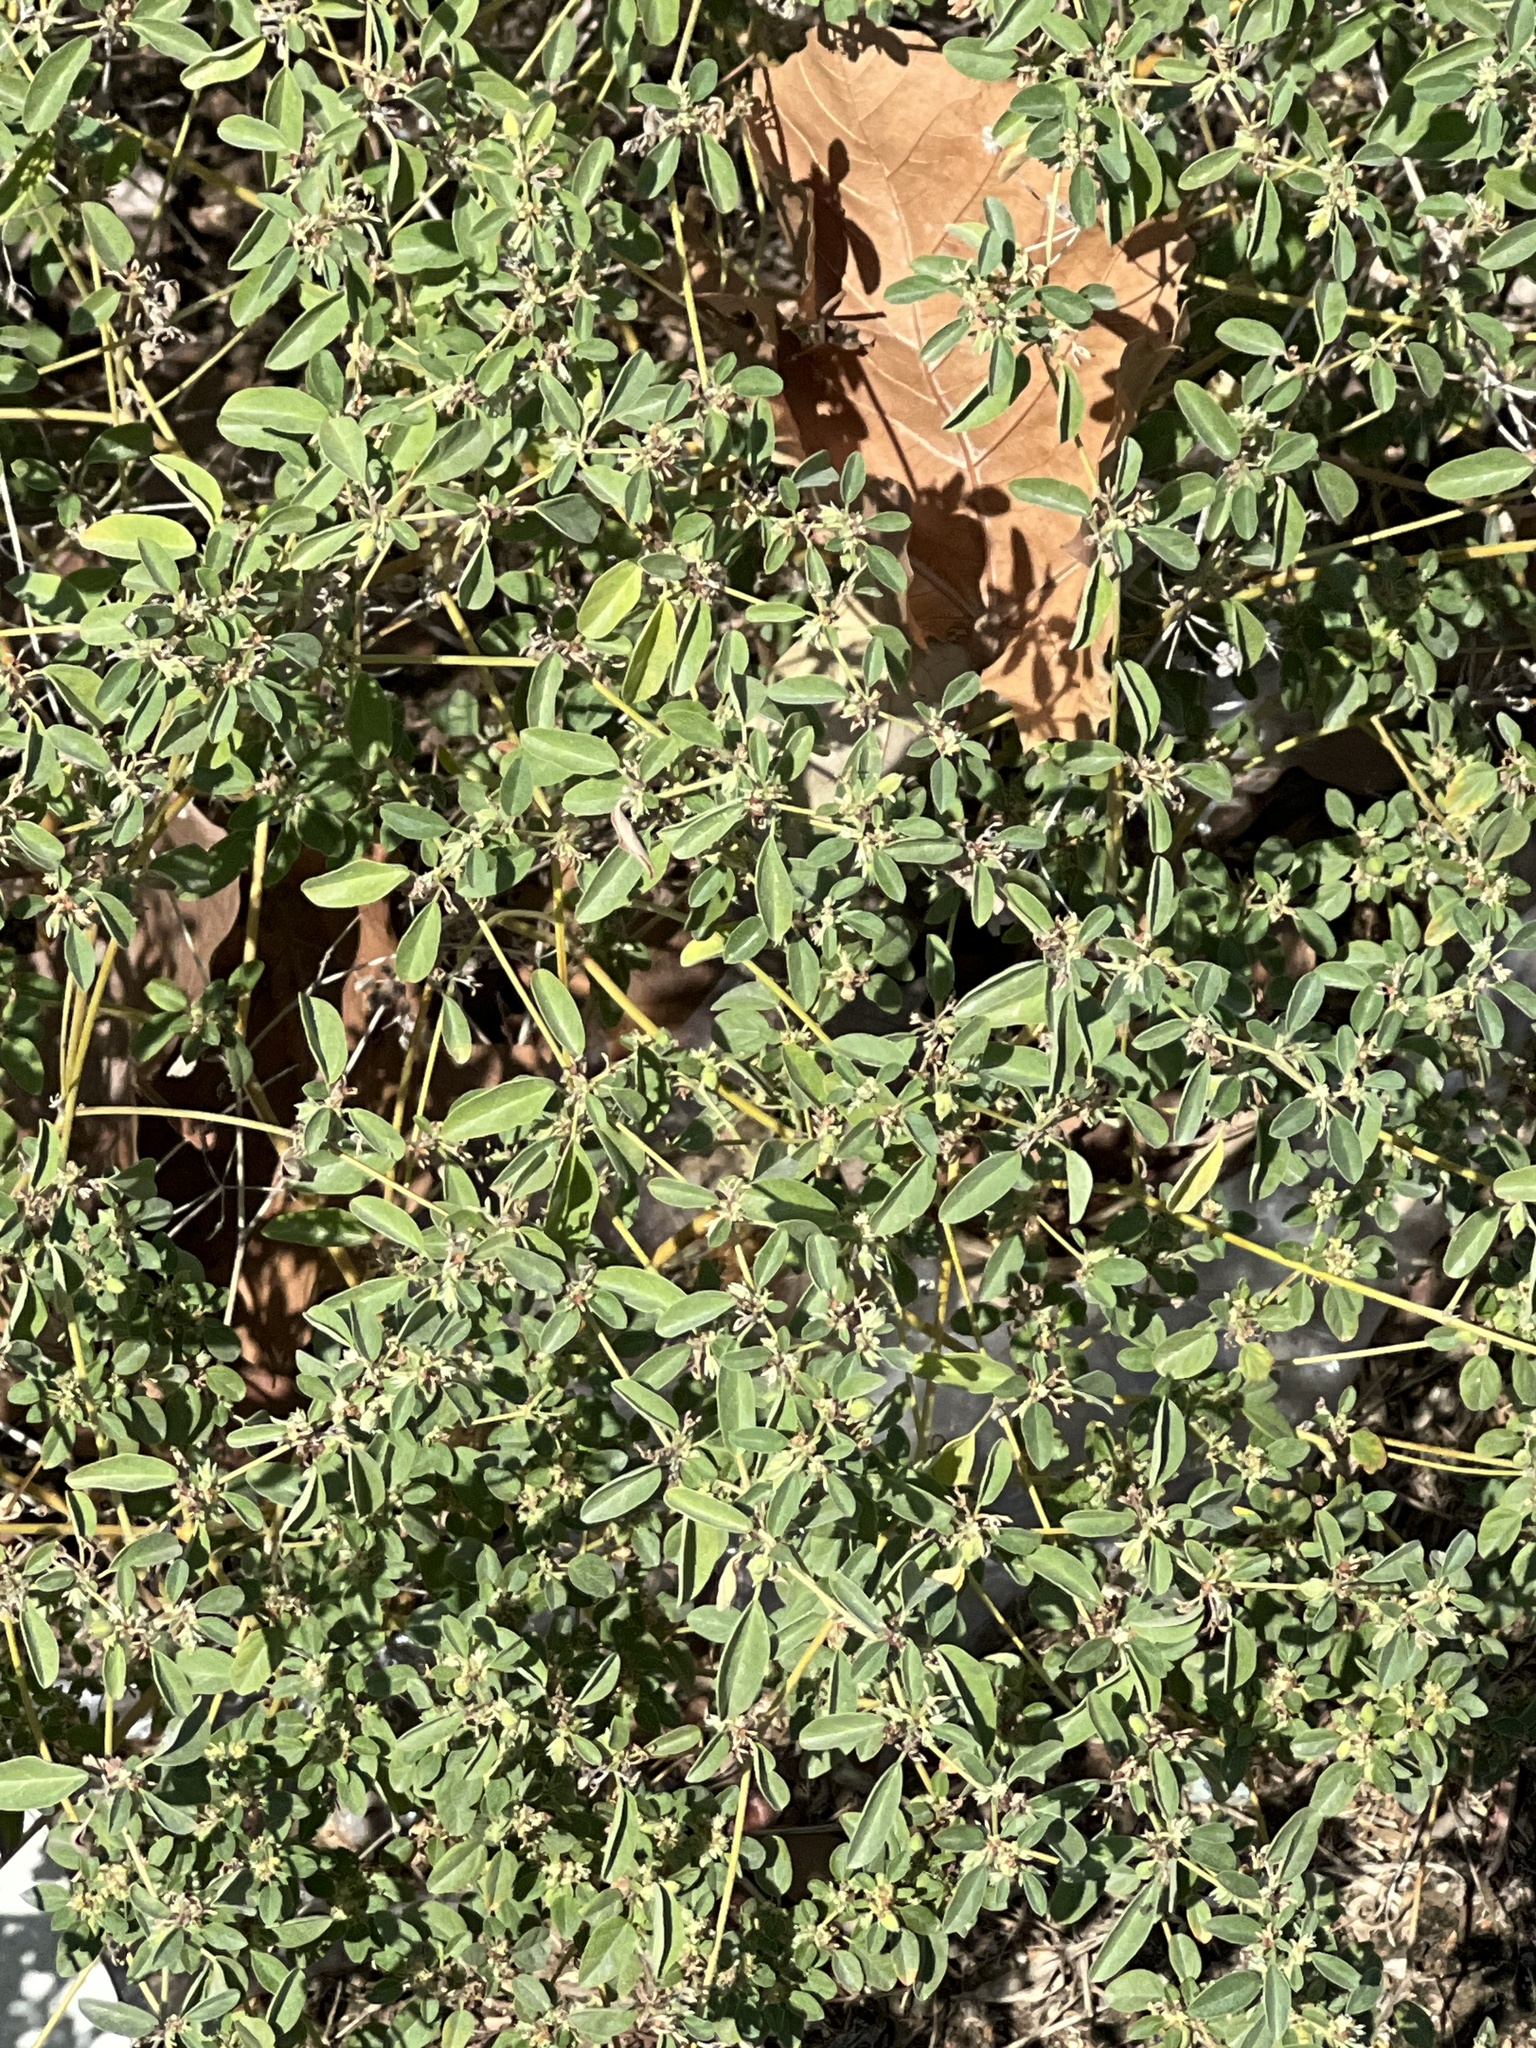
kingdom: Plantae
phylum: Tracheophyta
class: Magnoliopsida
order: Malpighiales
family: Euphorbiaceae
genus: Croton
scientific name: Croton monanthogynus
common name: One-seed croton
